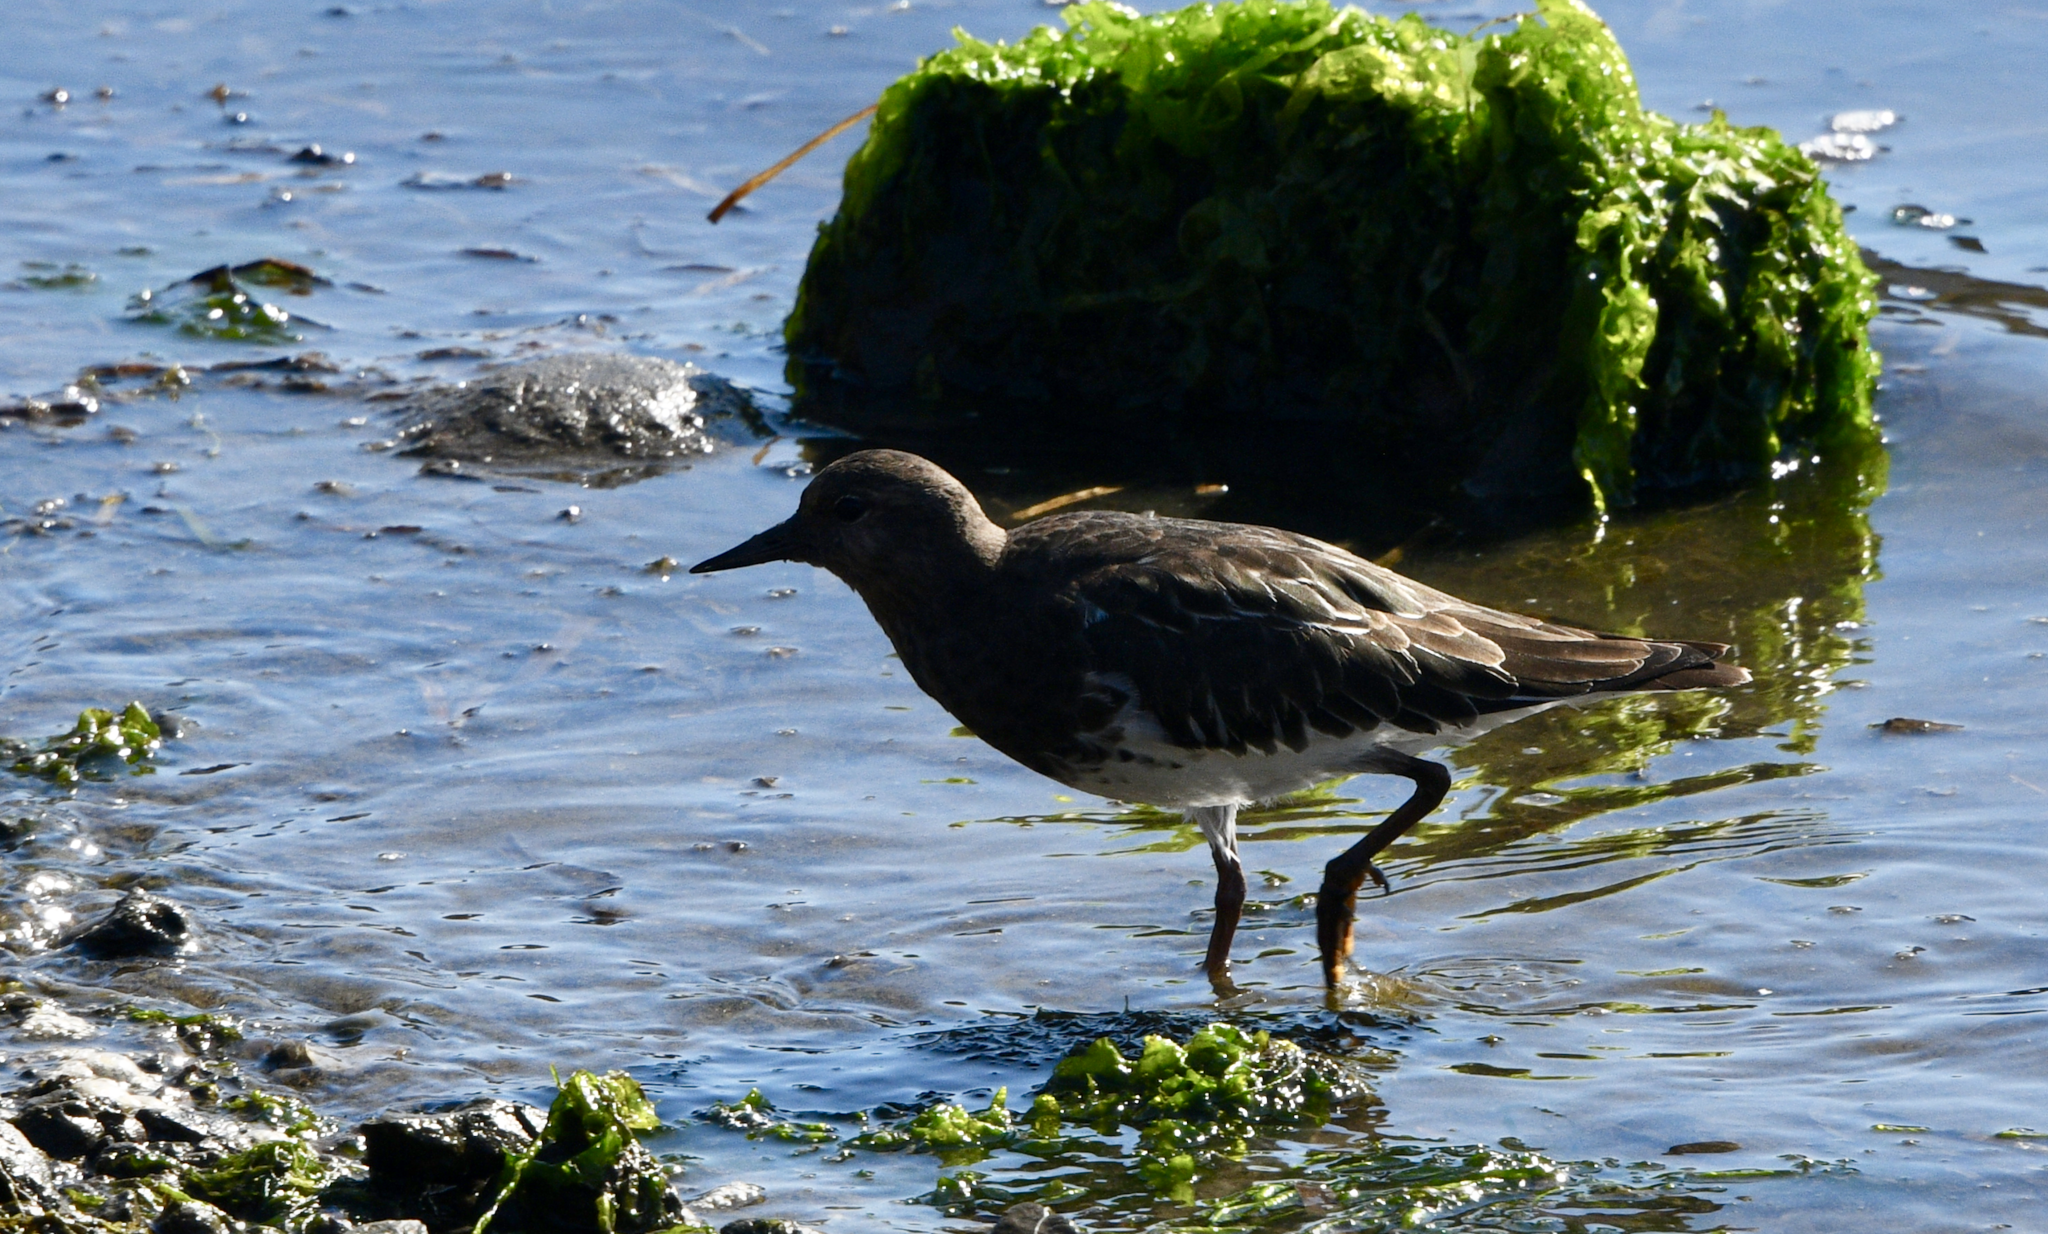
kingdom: Animalia
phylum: Chordata
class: Aves
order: Charadriiformes
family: Scolopacidae
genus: Arenaria
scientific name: Arenaria melanocephala
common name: Black turnstone
